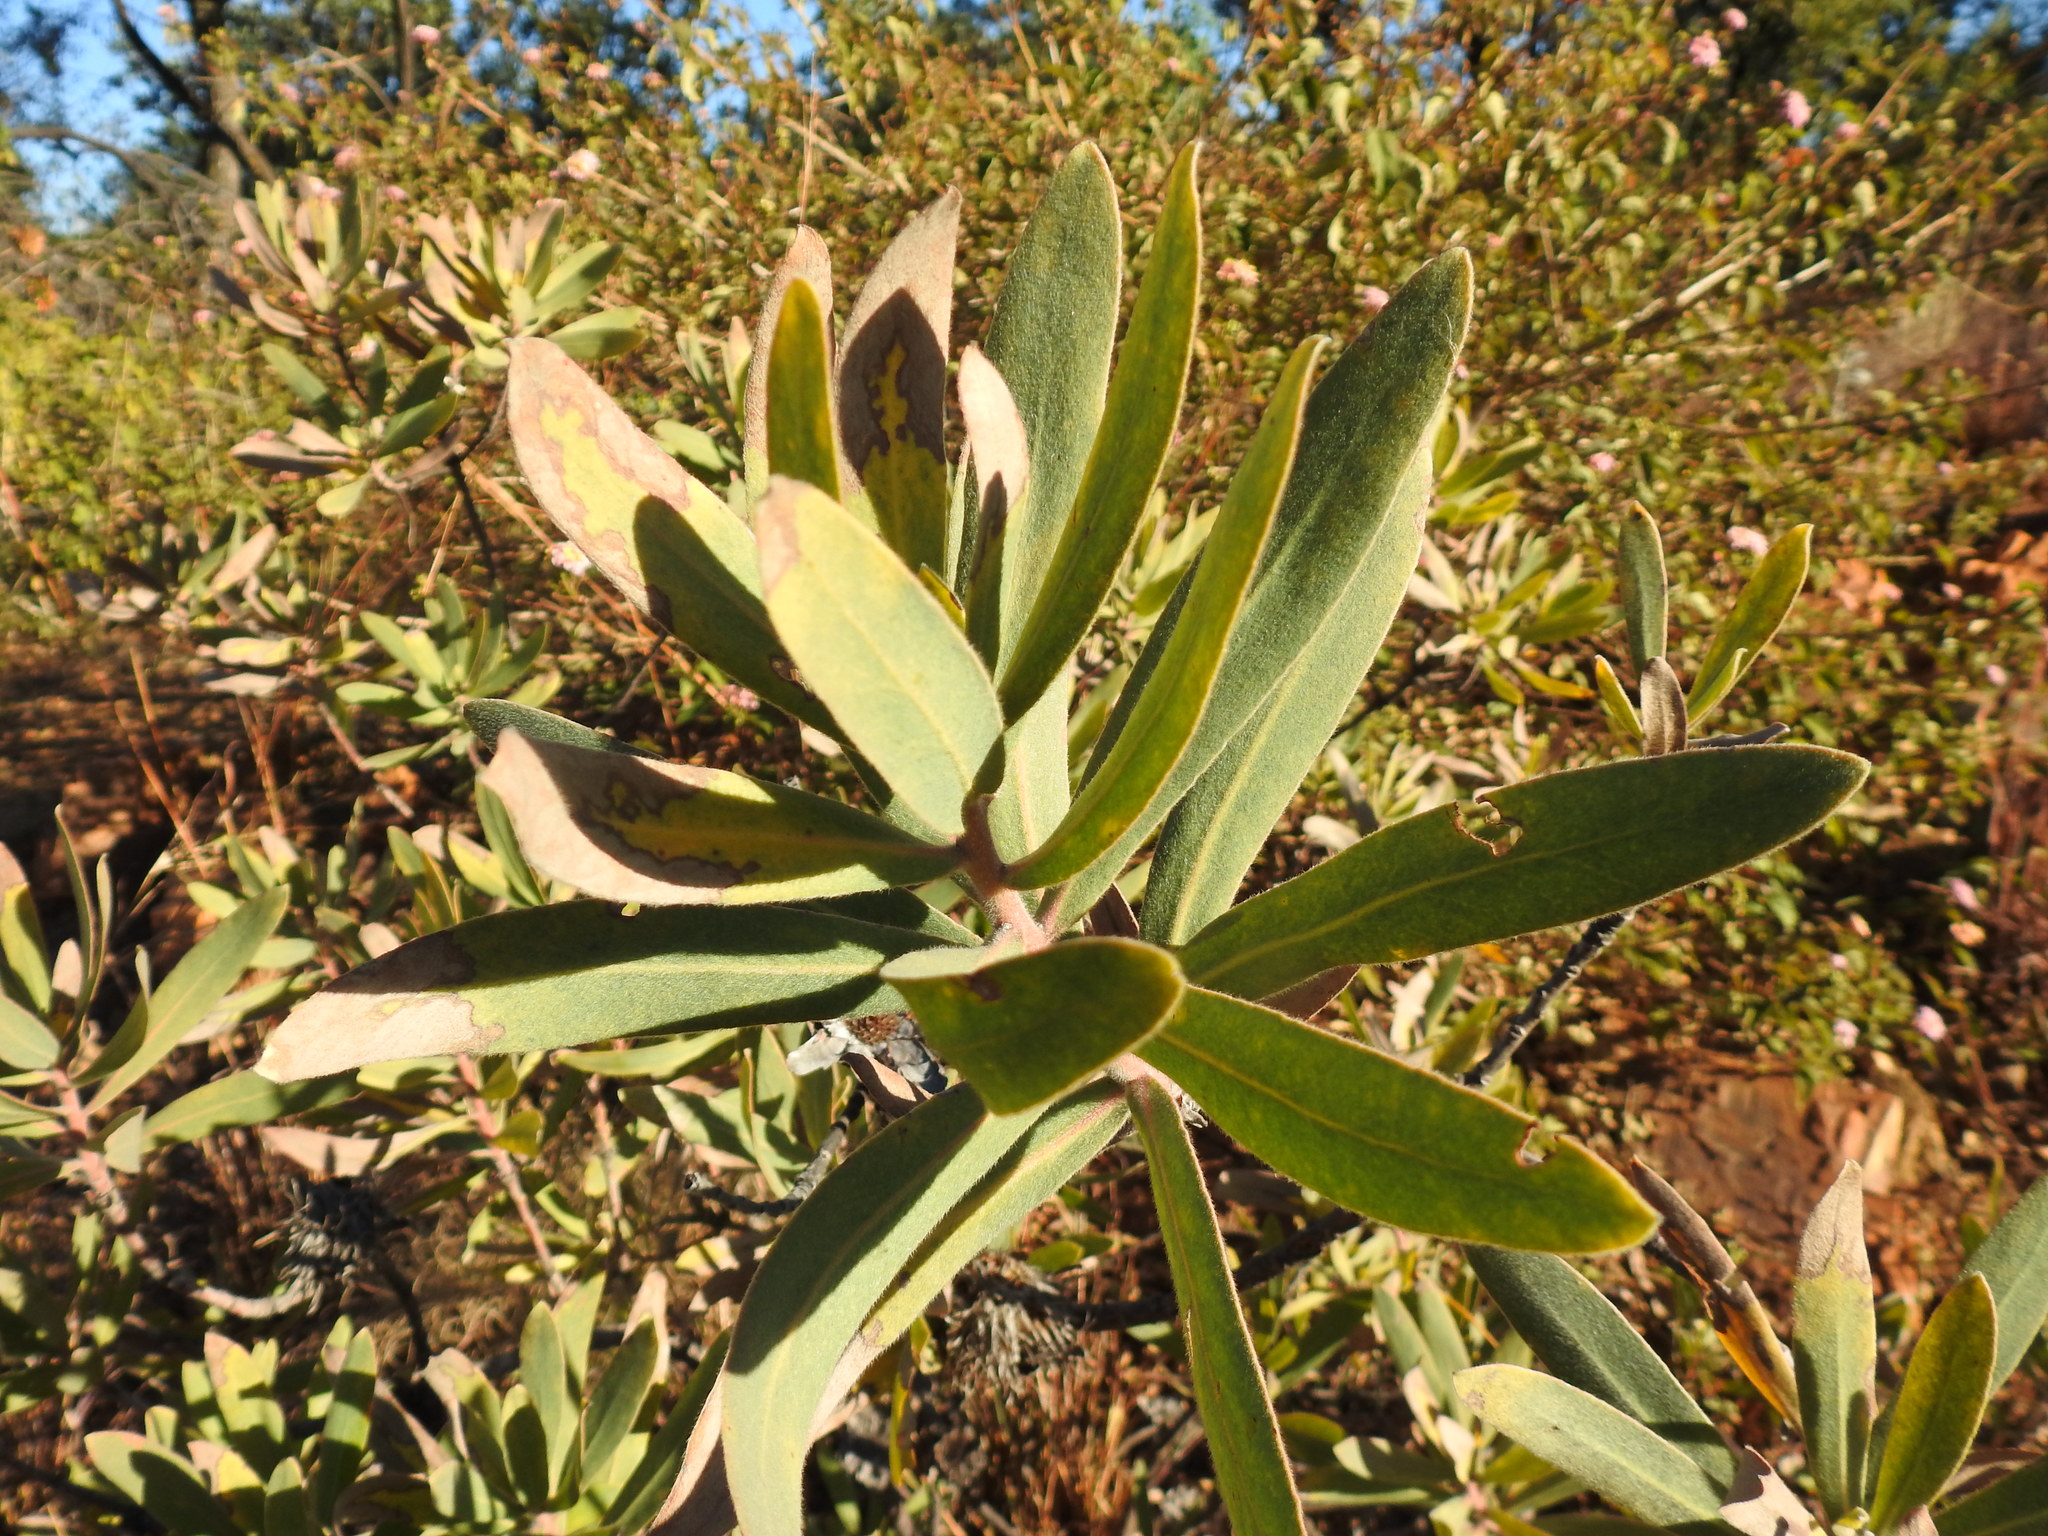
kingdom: Plantae
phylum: Tracheophyta
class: Magnoliopsida
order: Proteales
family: Proteaceae
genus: Protea
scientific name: Protea welwitschii
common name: Cluster-head protea
